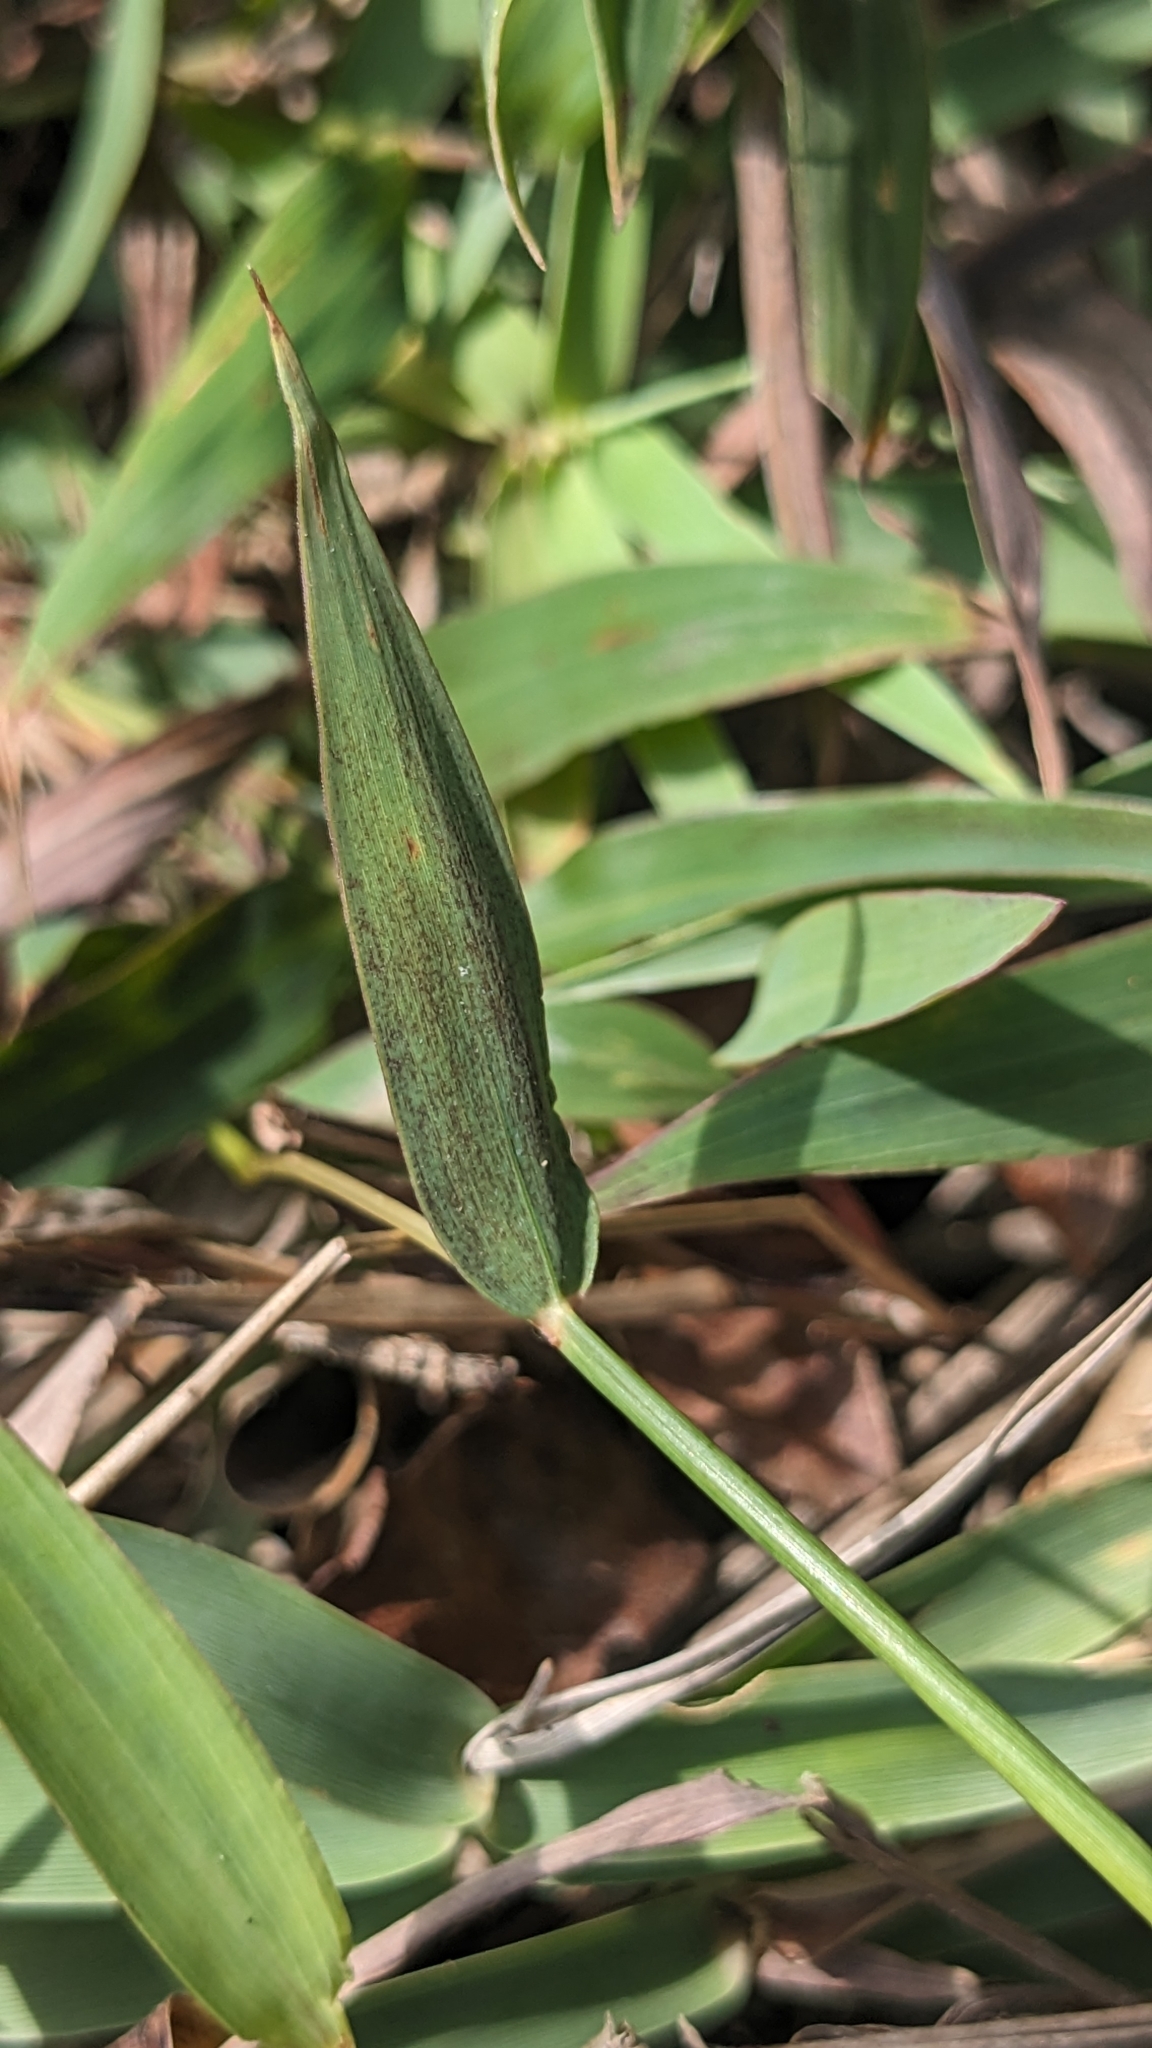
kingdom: Plantae
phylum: Tracheophyta
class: Liliopsida
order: Poales
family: Poaceae
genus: Ischaemum
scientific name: Ischaemum aristatum
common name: Toco grass
